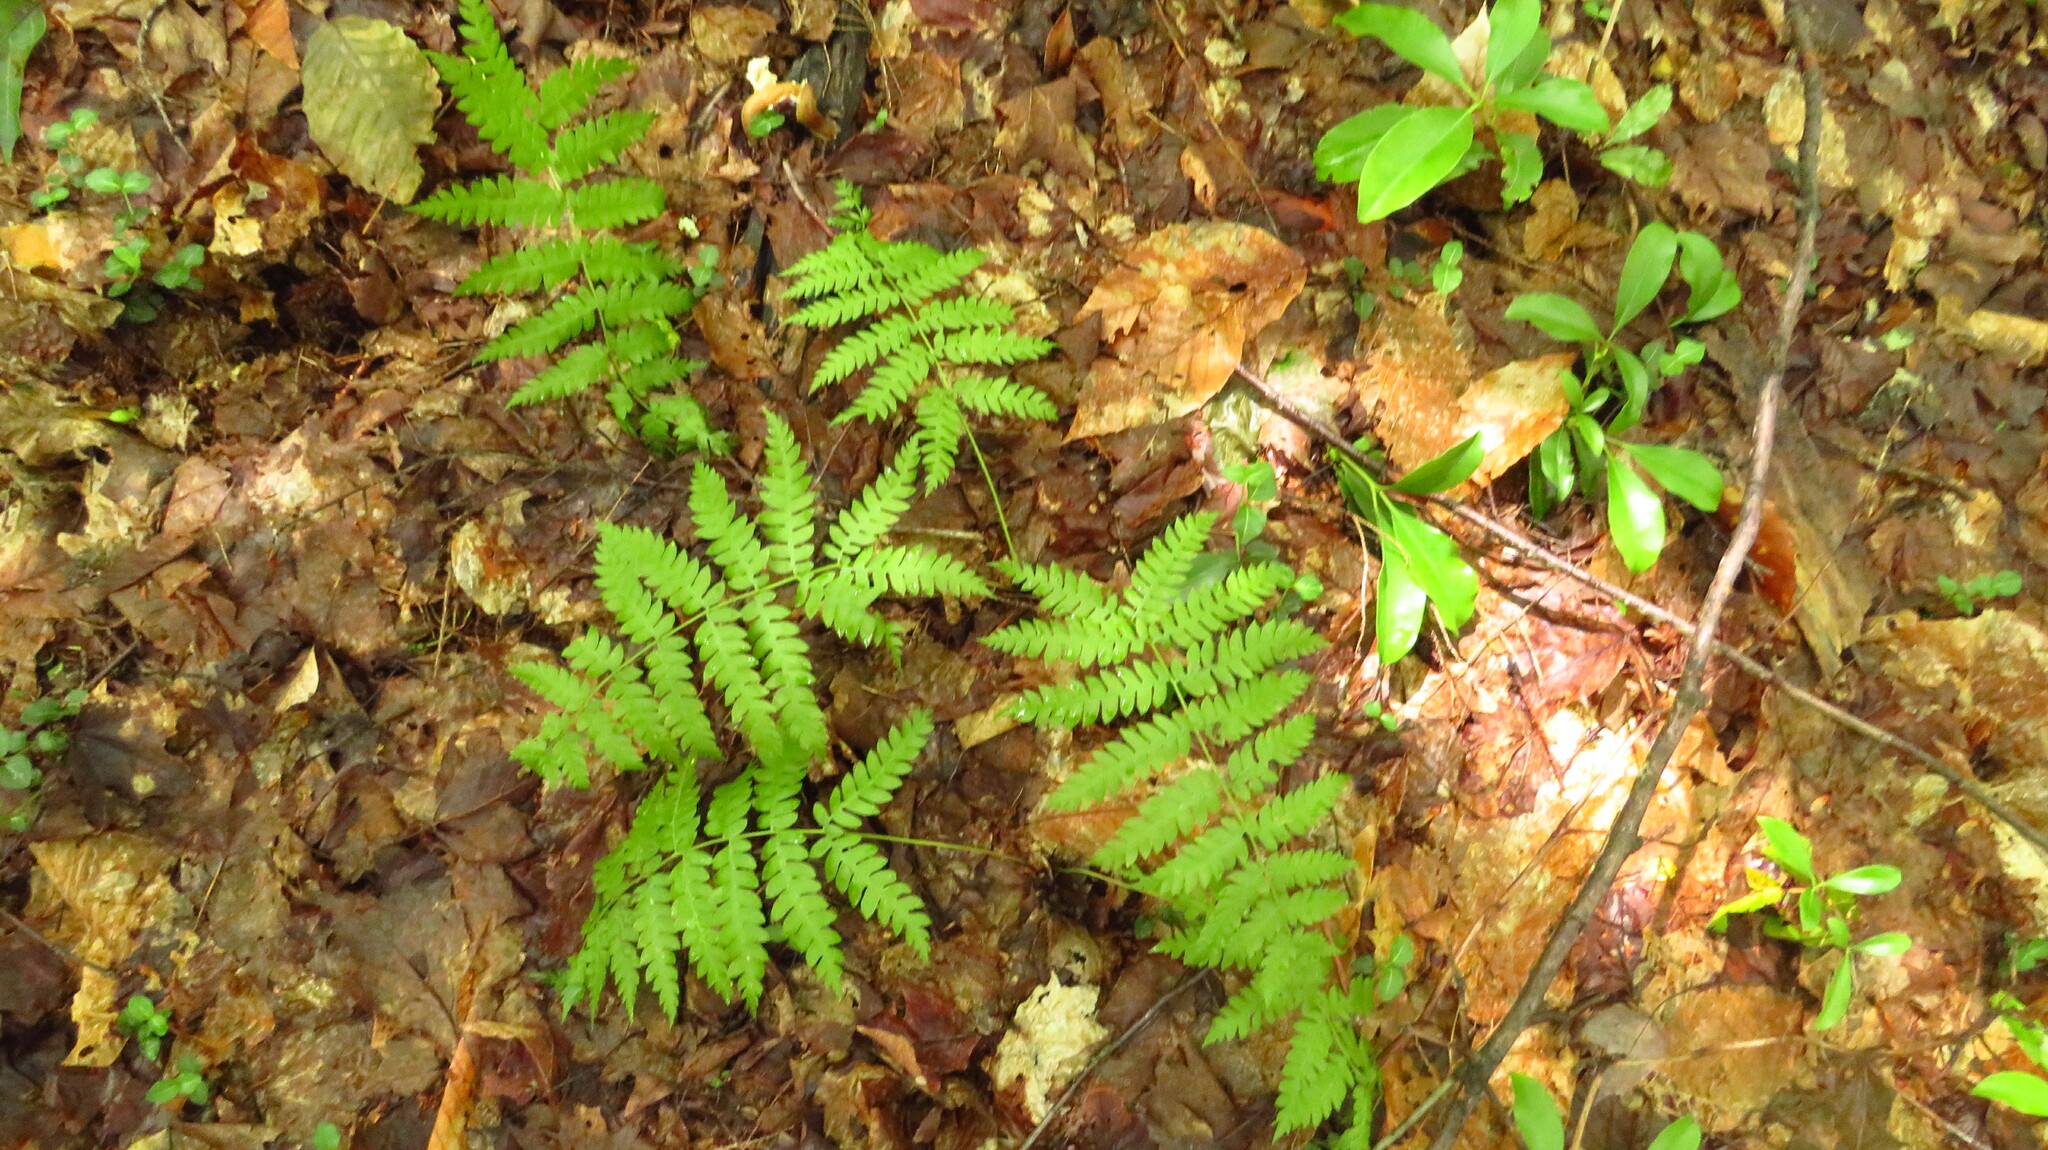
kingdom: Plantae
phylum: Tracheophyta
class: Polypodiopsida
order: Osmundales
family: Osmundaceae
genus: Osmundastrum
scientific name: Osmundastrum cinnamomeum
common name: Cinnamon fern
